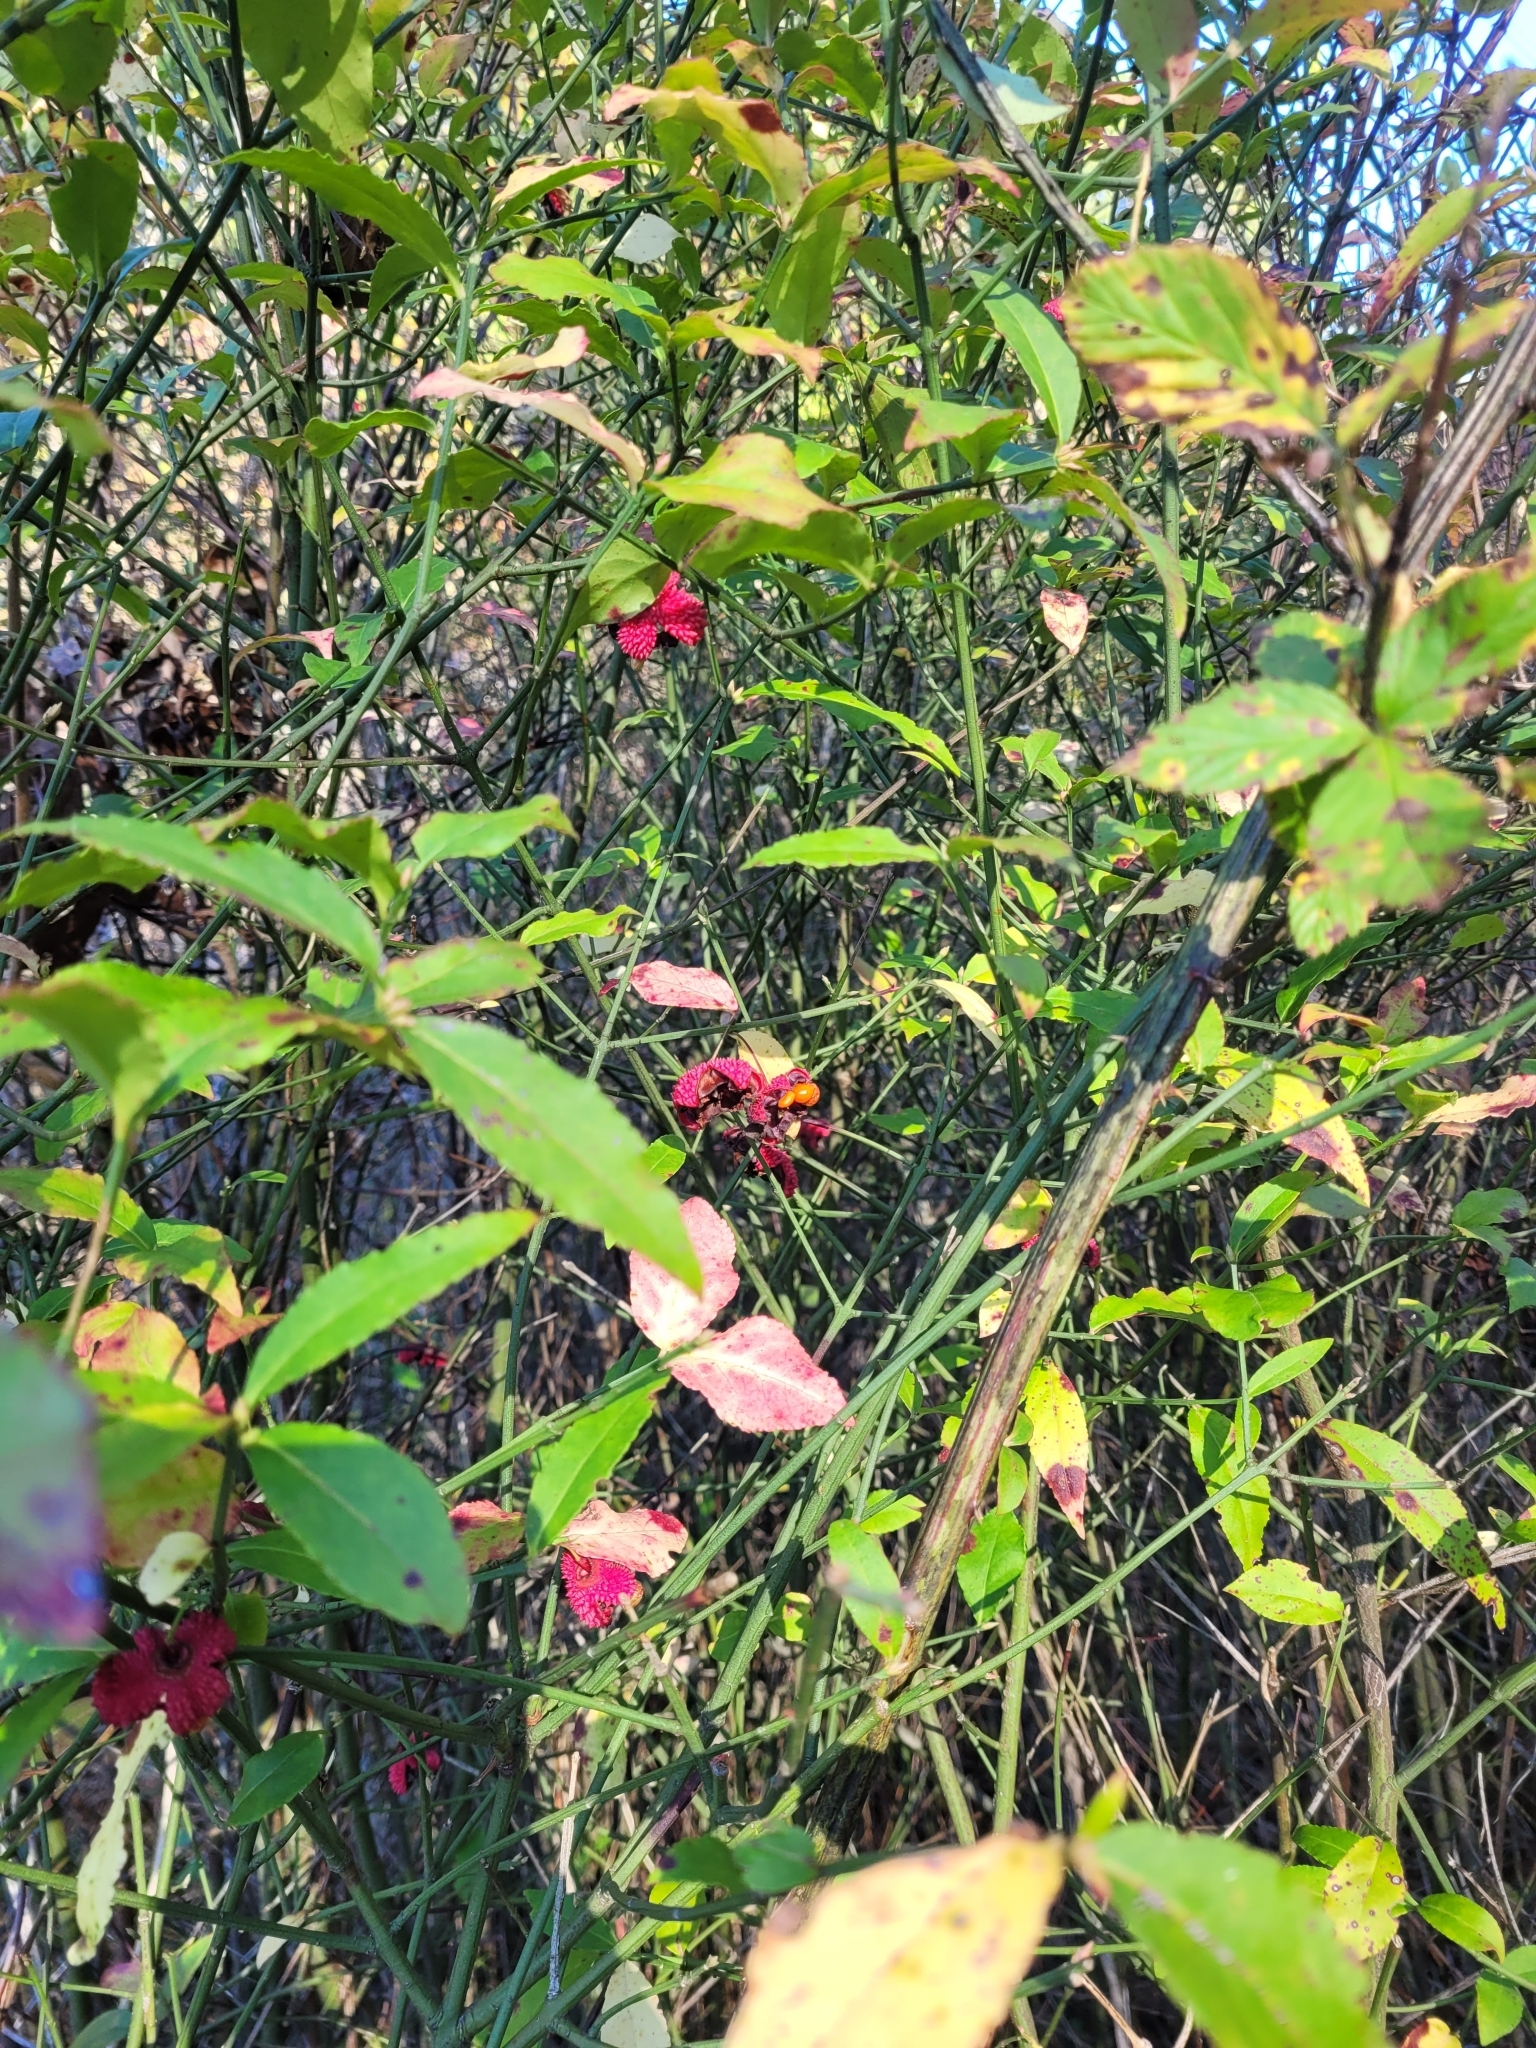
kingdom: Plantae
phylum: Tracheophyta
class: Magnoliopsida
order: Celastrales
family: Celastraceae
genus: Euonymus
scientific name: Euonymus americanus
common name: Bursting-heart
